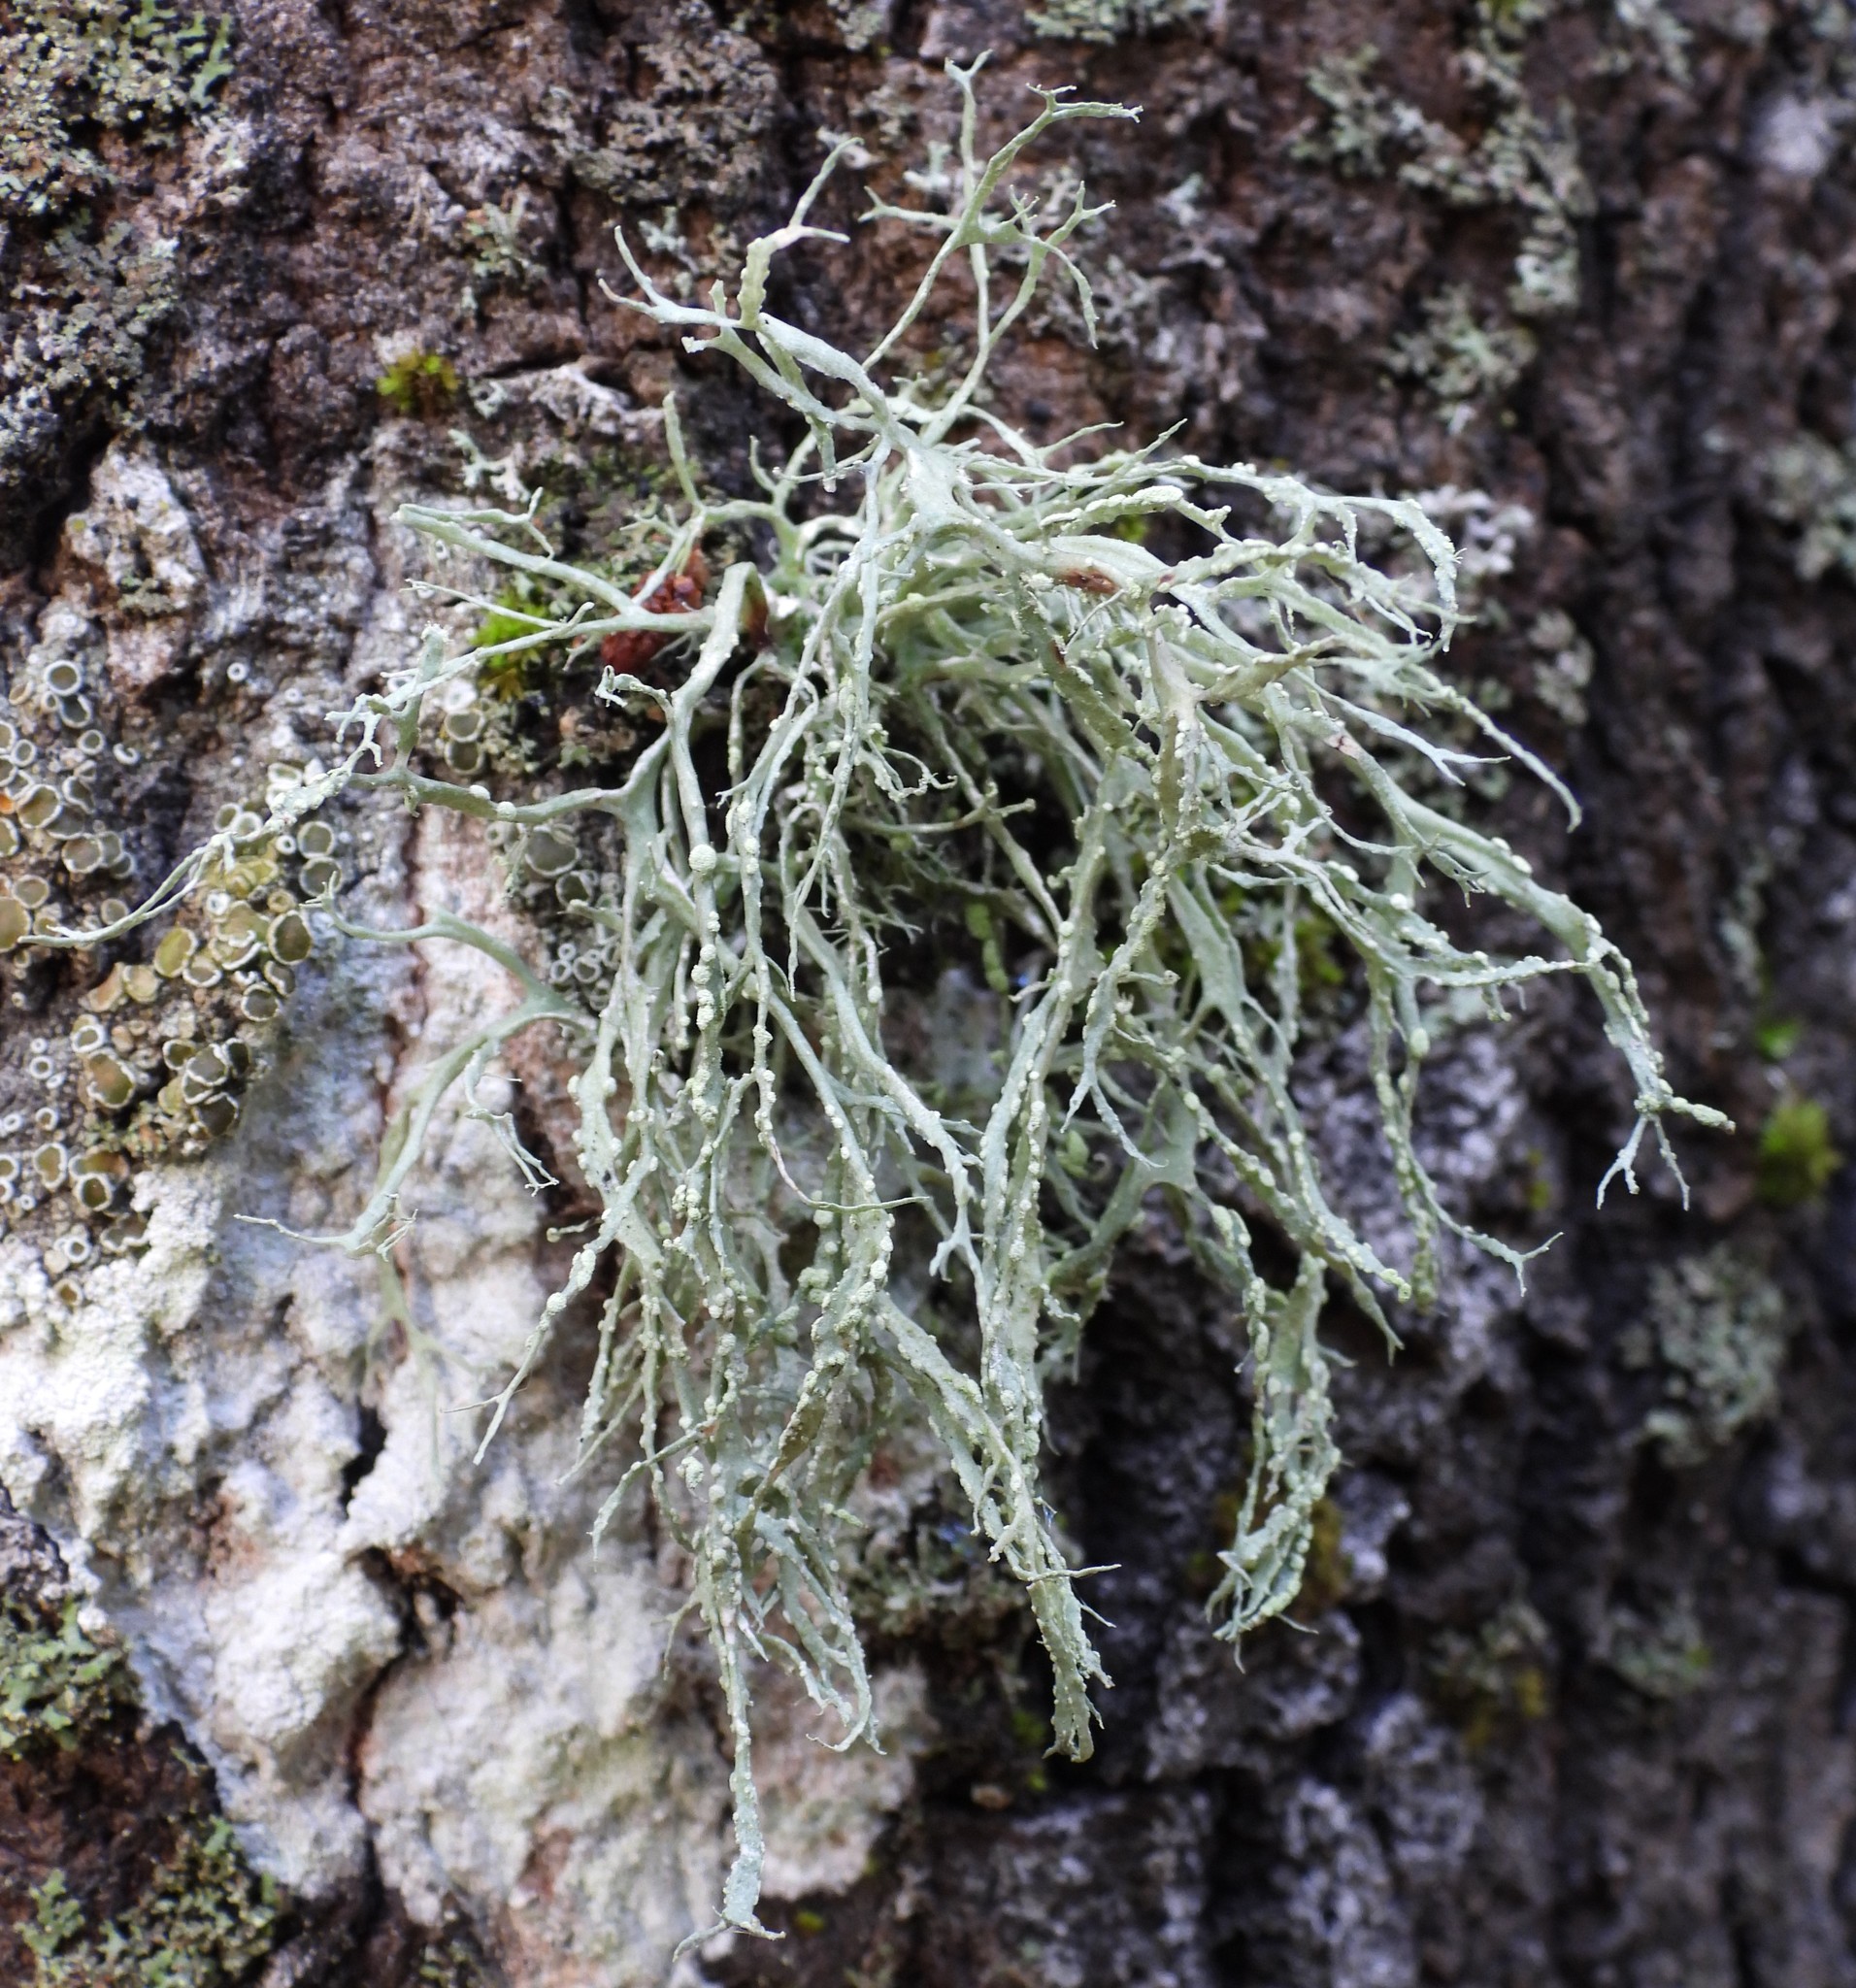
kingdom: Fungi
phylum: Ascomycota
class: Lecanoromycetes
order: Lecanorales
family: Ramalinaceae
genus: Ramalina
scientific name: Ramalina farinacea
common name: Farinose cartilage lichen
